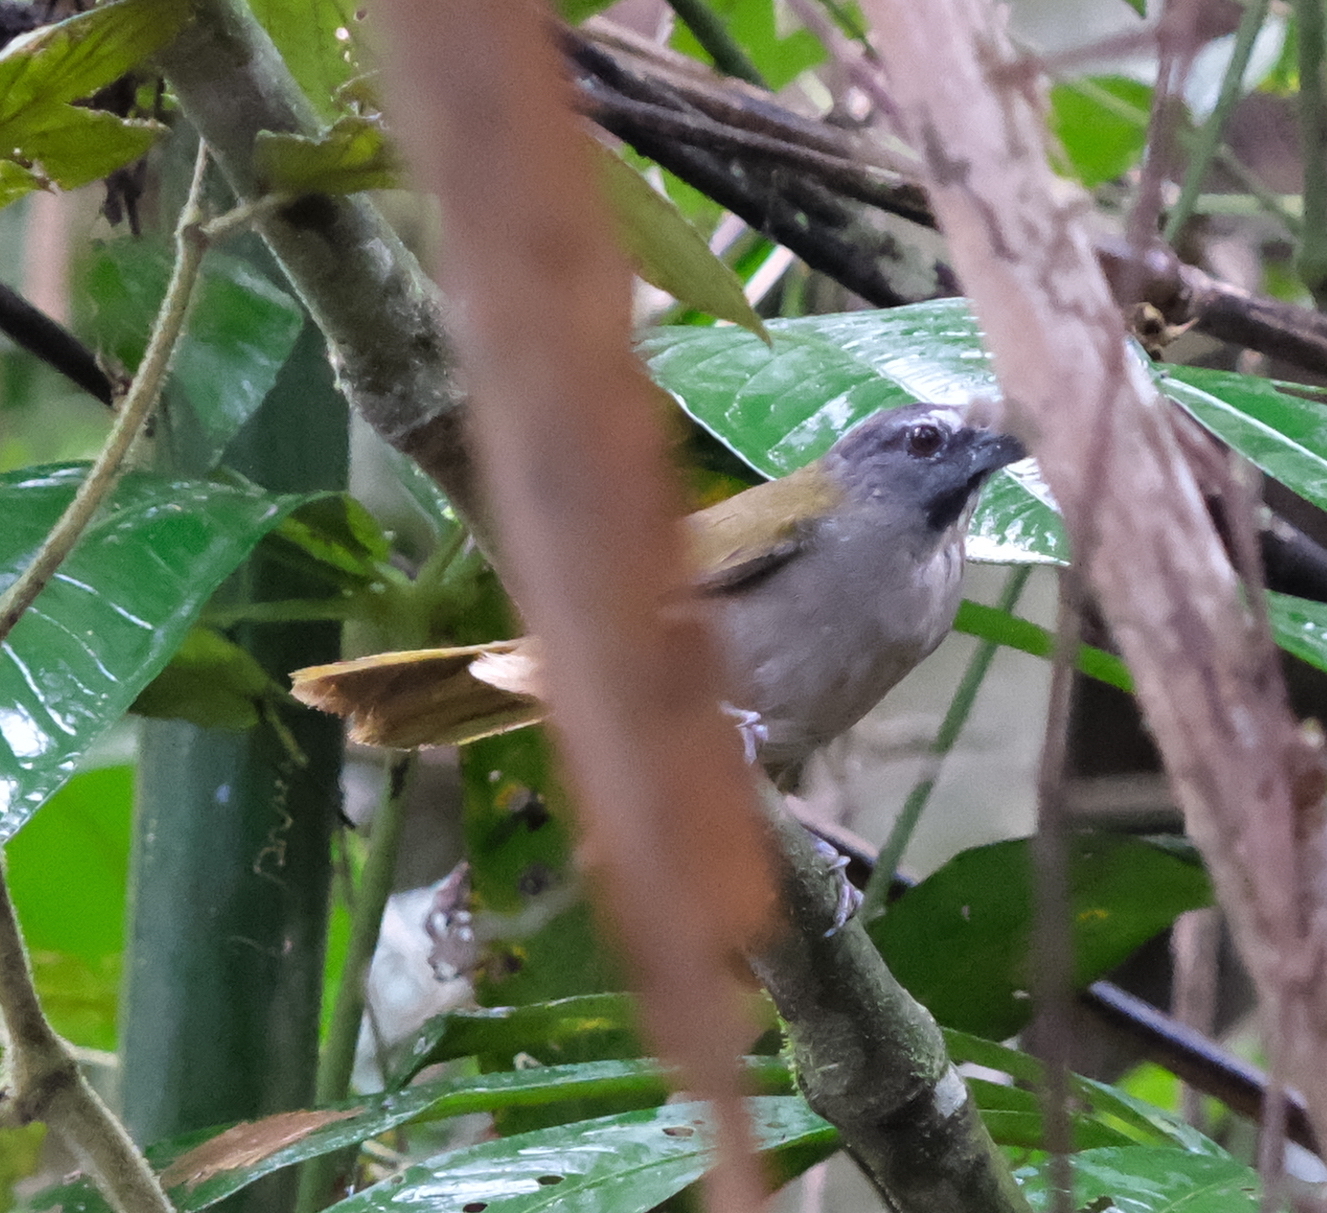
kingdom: Animalia
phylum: Chordata
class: Aves
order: Passeriformes
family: Thraupidae
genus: Saltator
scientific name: Saltator maximus
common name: Buff-throated saltator
